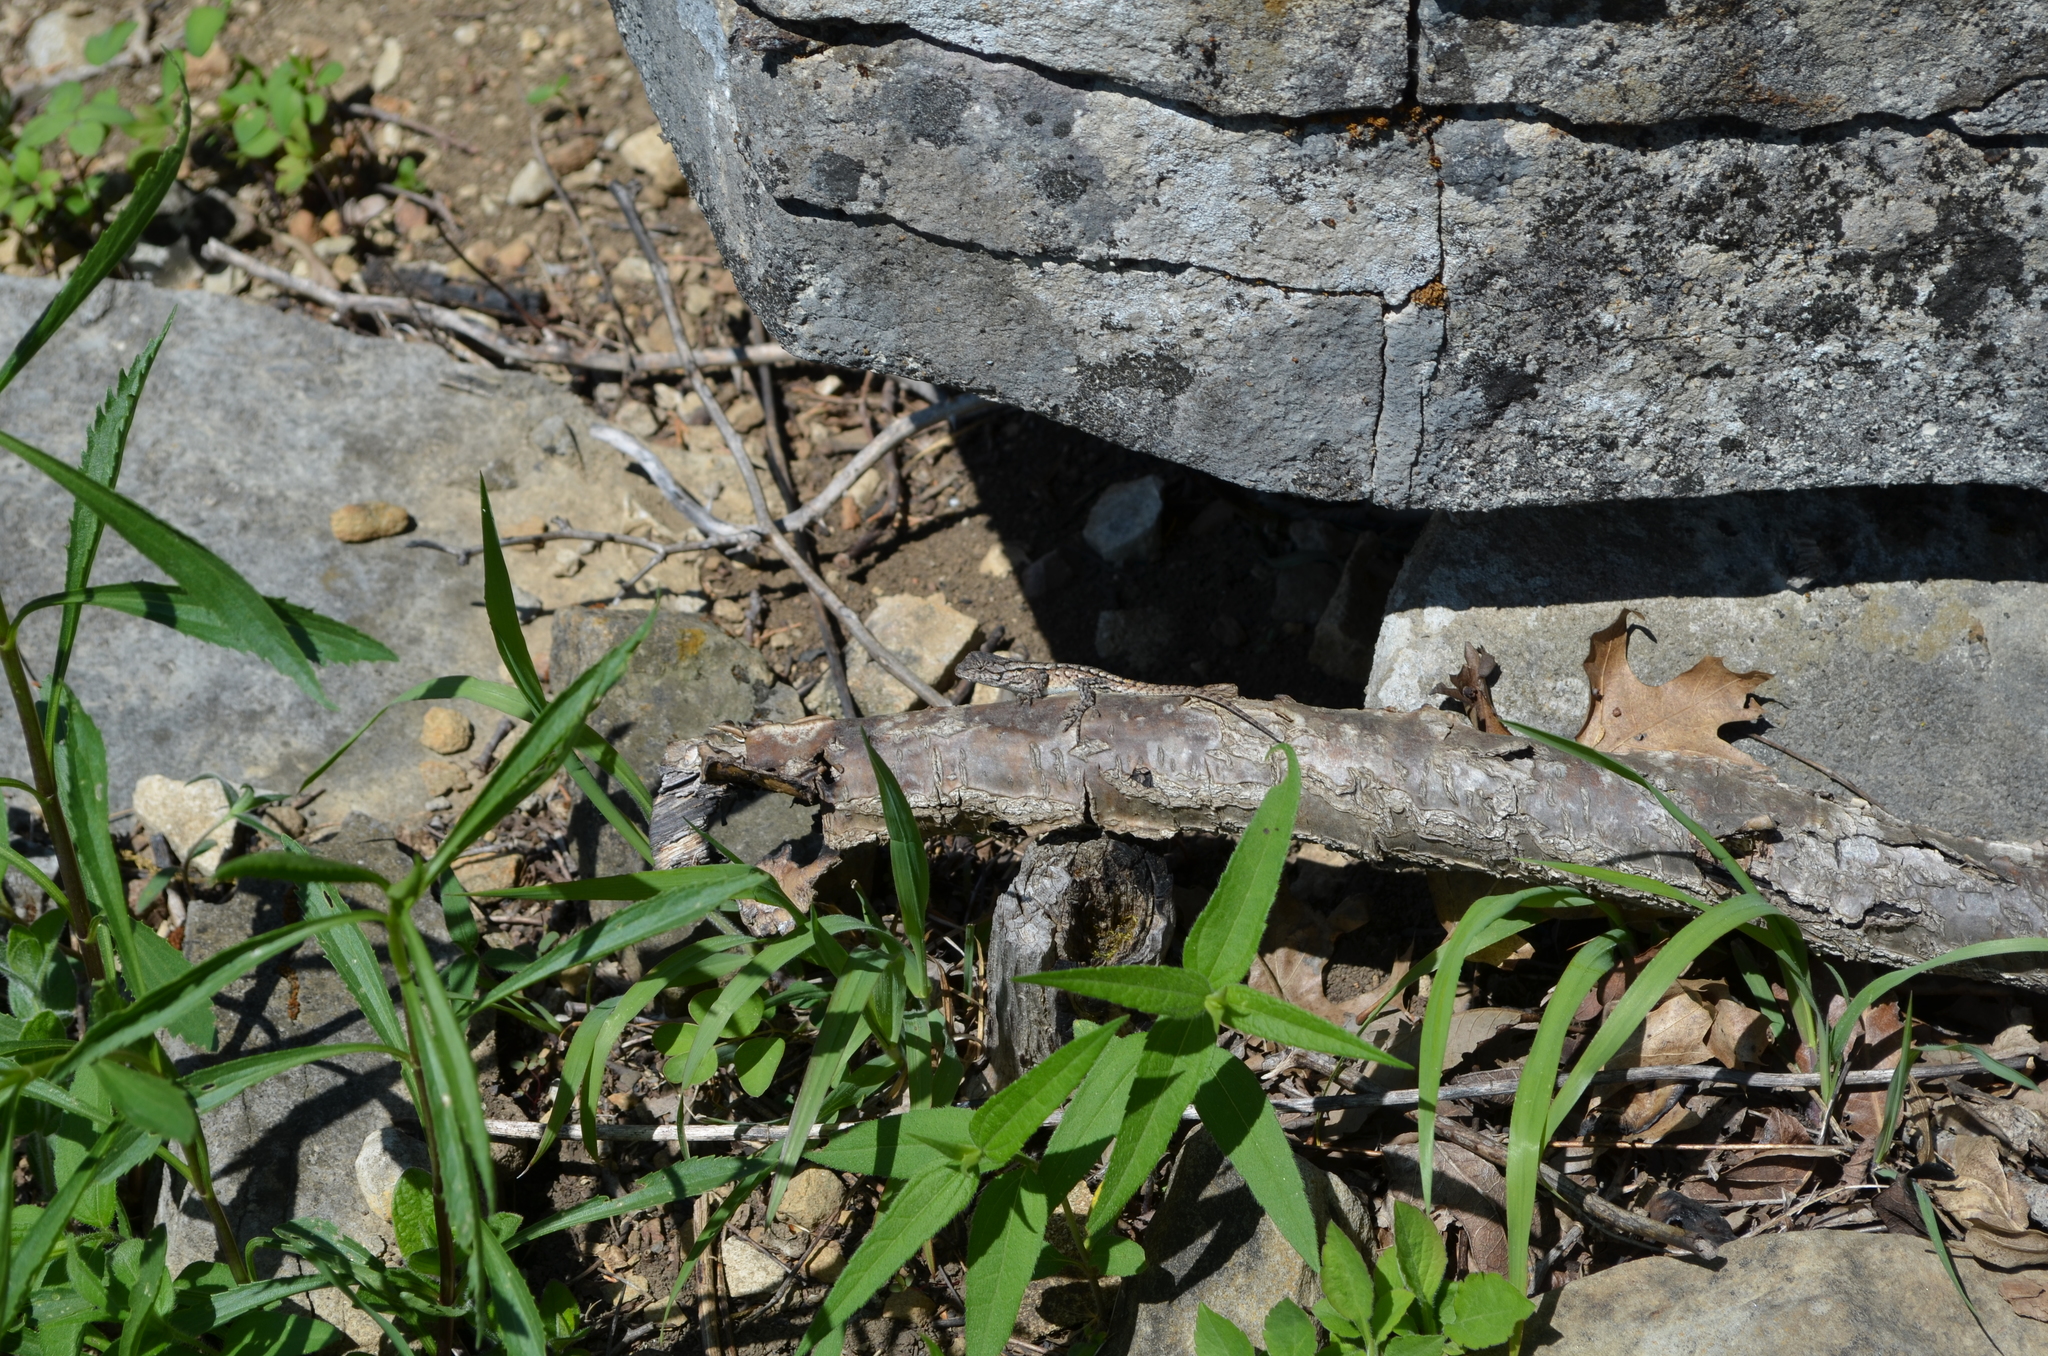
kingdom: Animalia
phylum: Chordata
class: Squamata
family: Phrynosomatidae
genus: Sceloporus
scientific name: Sceloporus undulatus
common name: Eastern fence lizard
